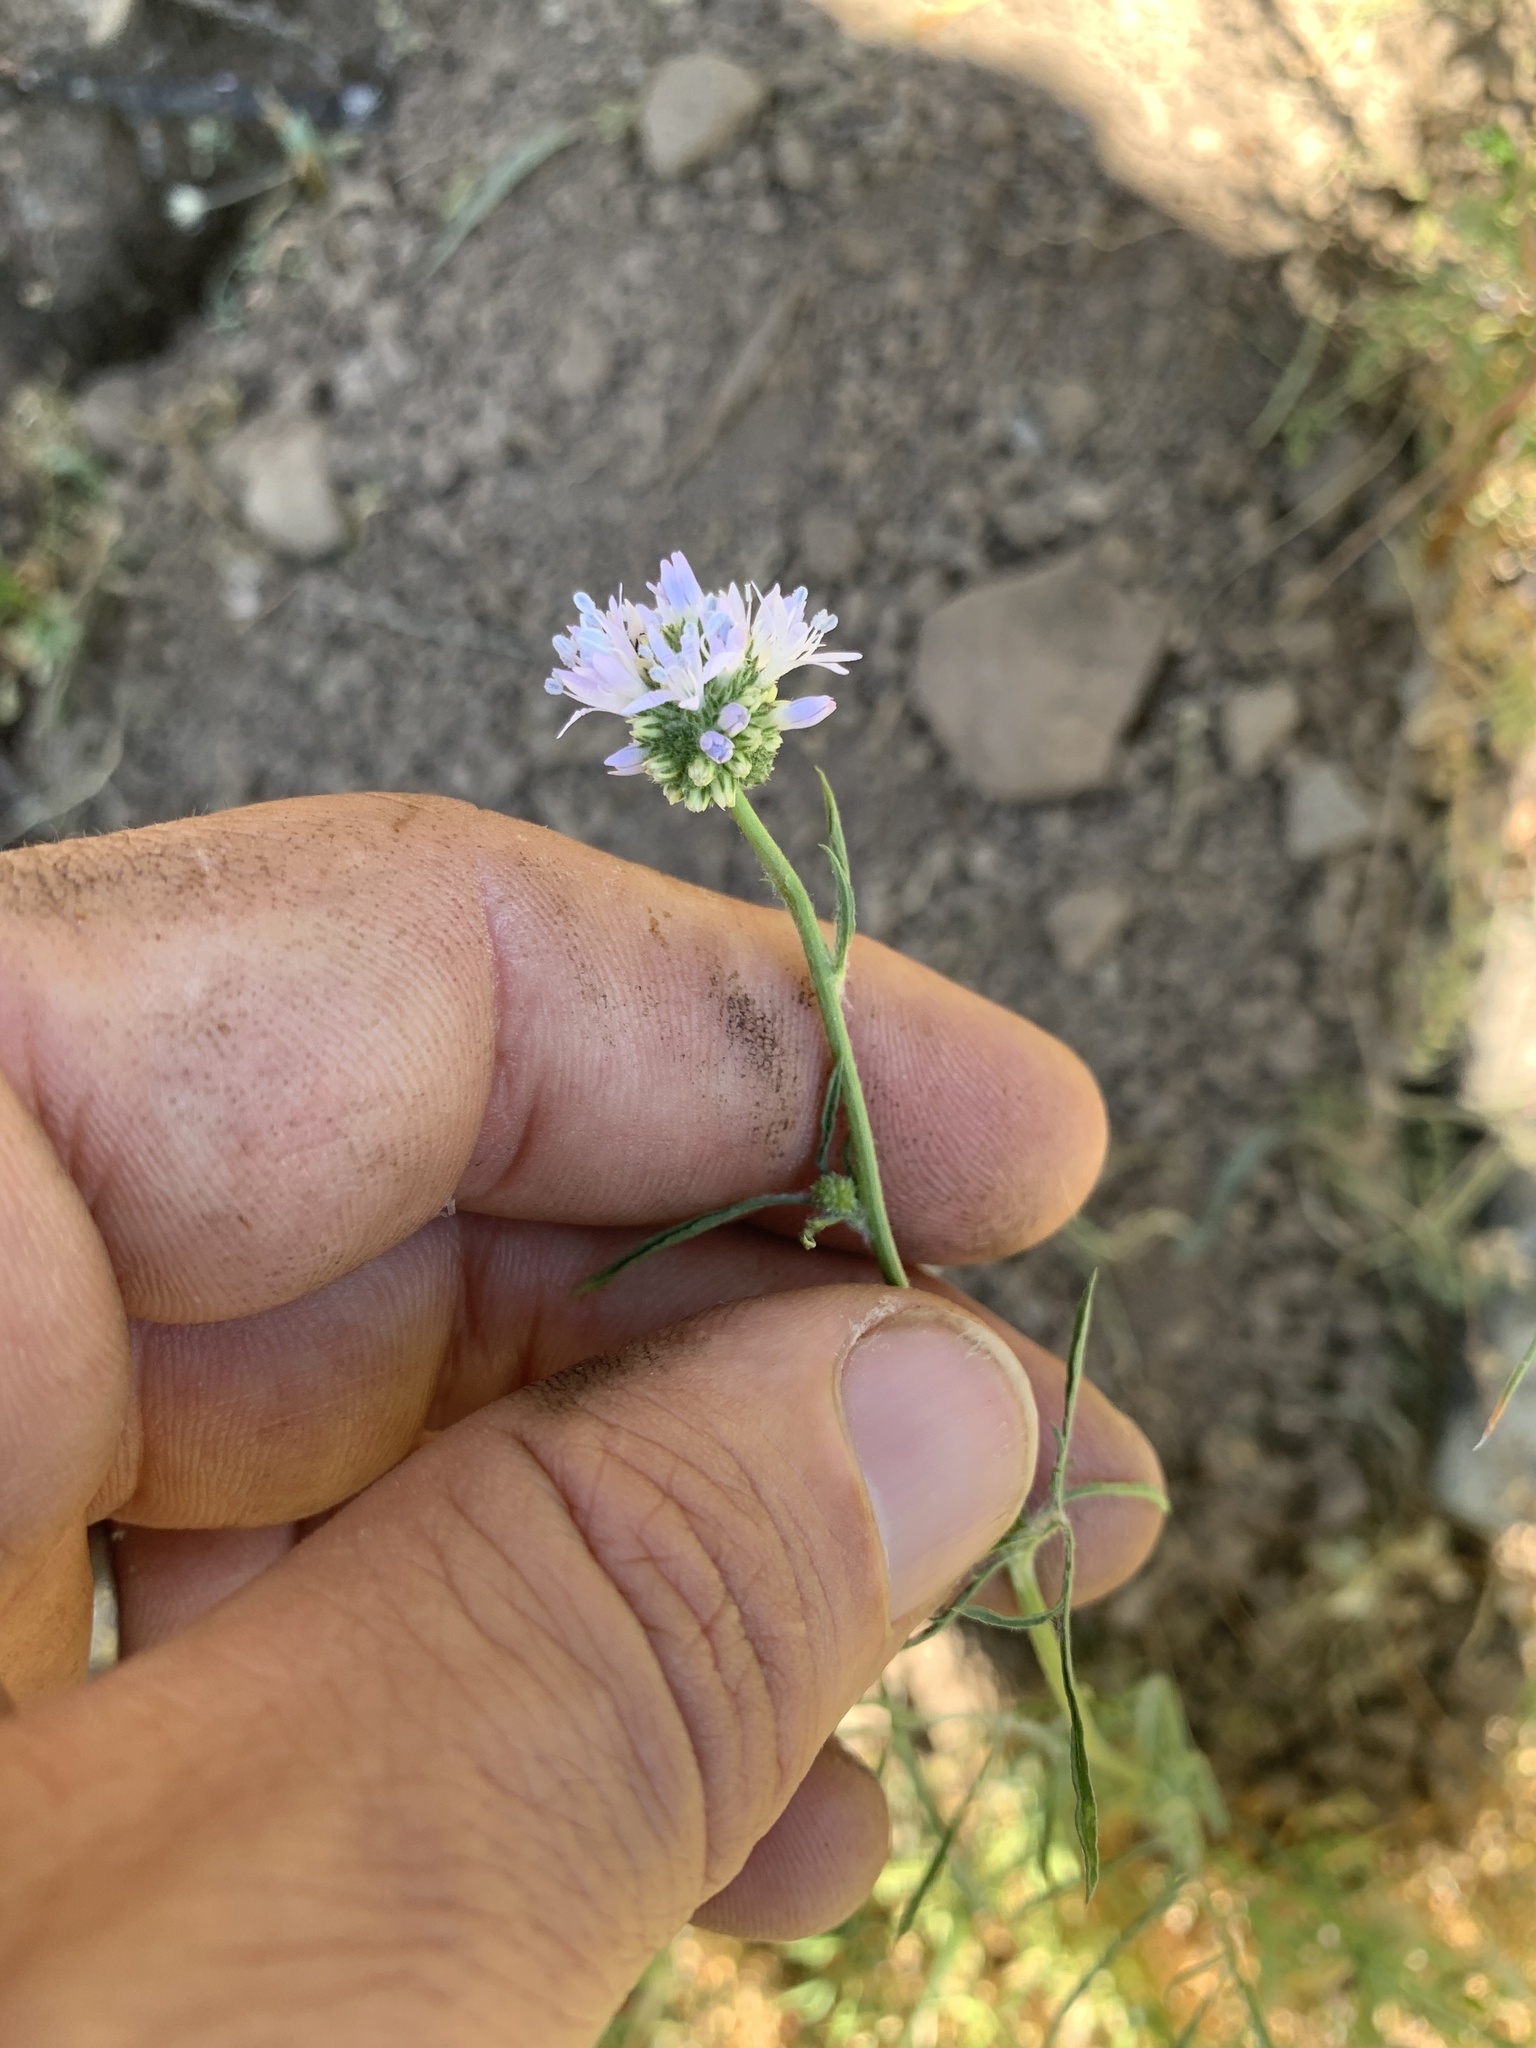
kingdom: Plantae
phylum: Tracheophyta
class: Magnoliopsida
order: Ericales
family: Polemoniaceae
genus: Gilia
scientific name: Gilia capitata
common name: Bluehead gilia
